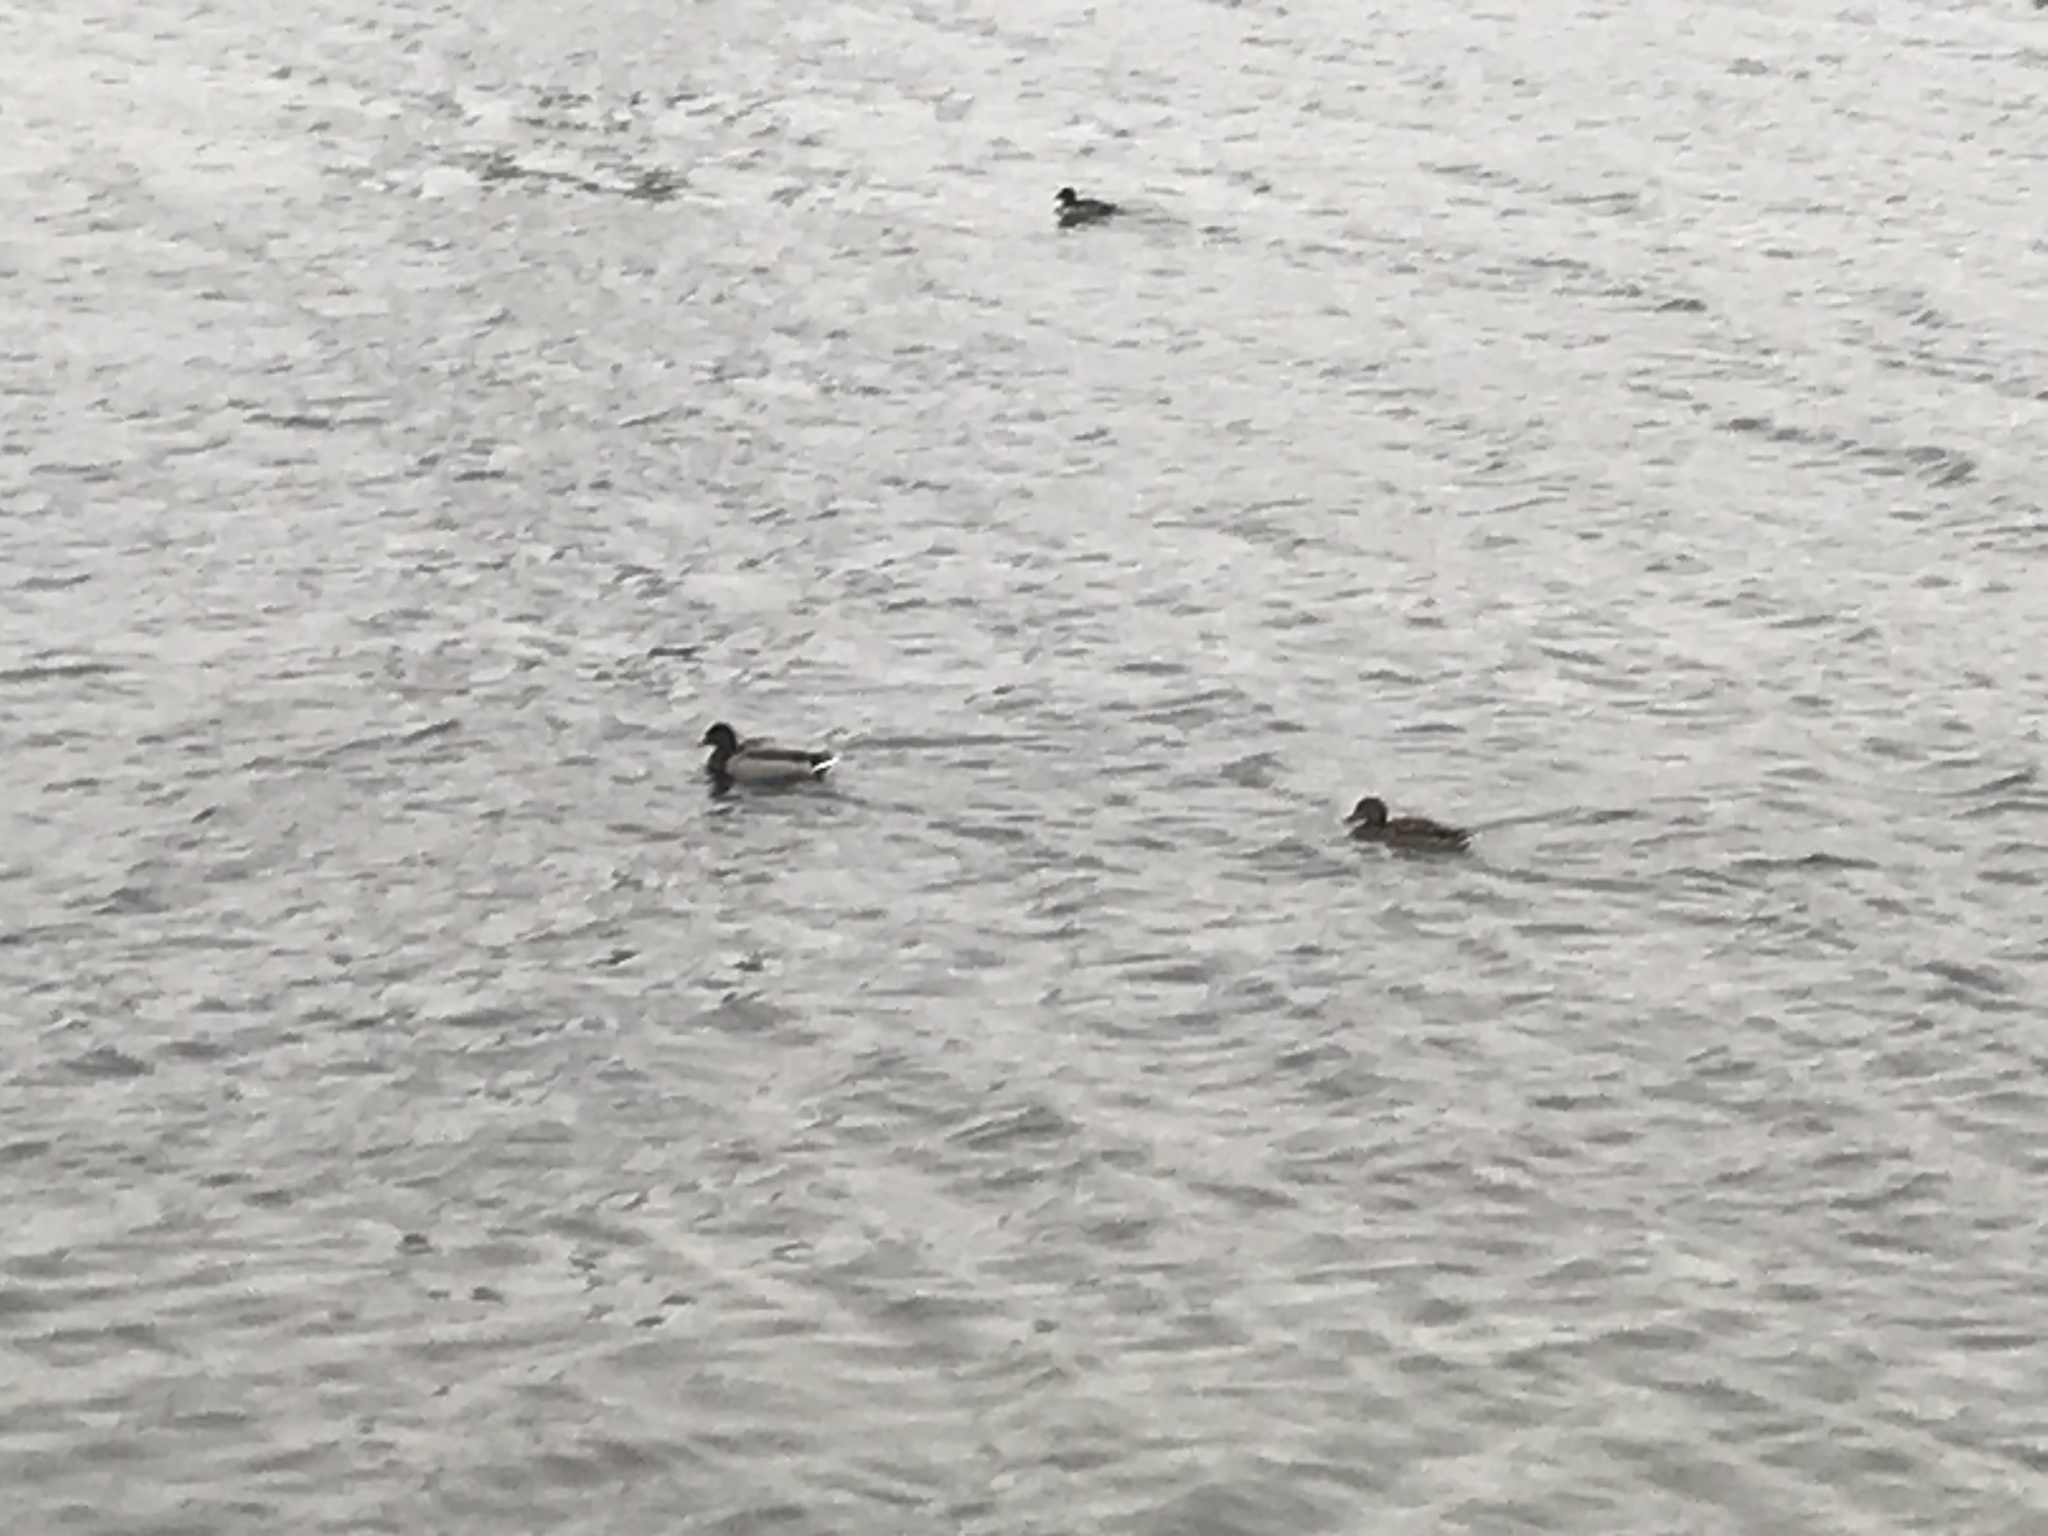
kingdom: Animalia
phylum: Chordata
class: Aves
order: Anseriformes
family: Anatidae
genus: Anas
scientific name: Anas platyrhynchos
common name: Mallard
